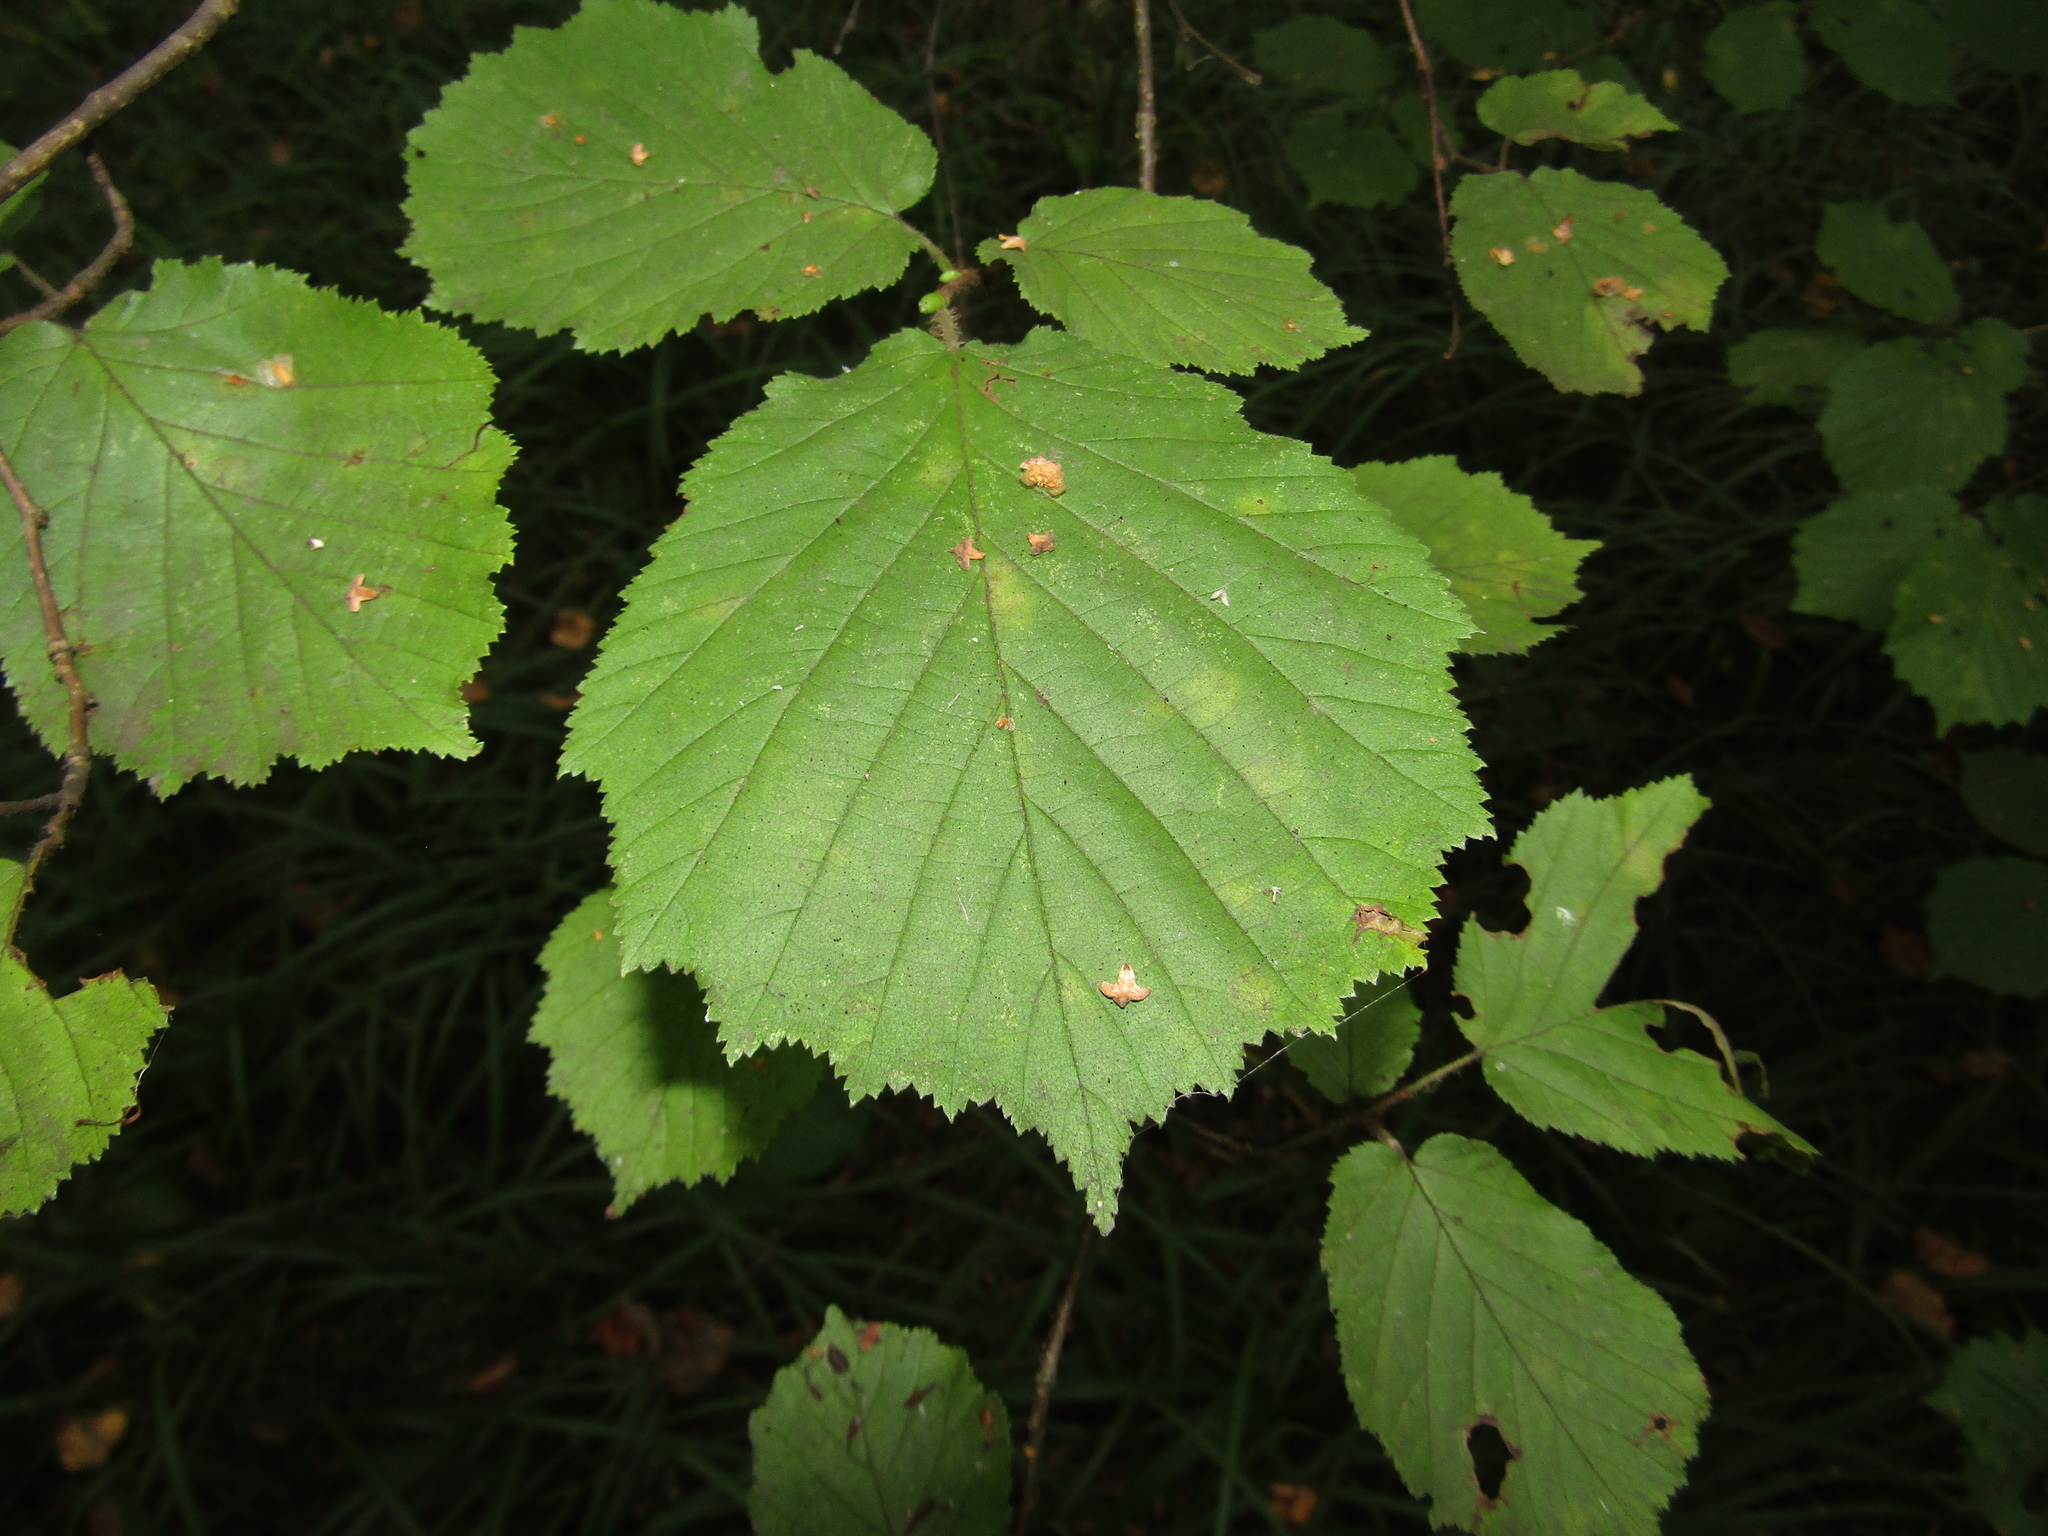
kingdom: Plantae
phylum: Tracheophyta
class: Magnoliopsida
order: Fagales
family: Betulaceae
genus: Corylus
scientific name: Corylus avellana
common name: European hazel
